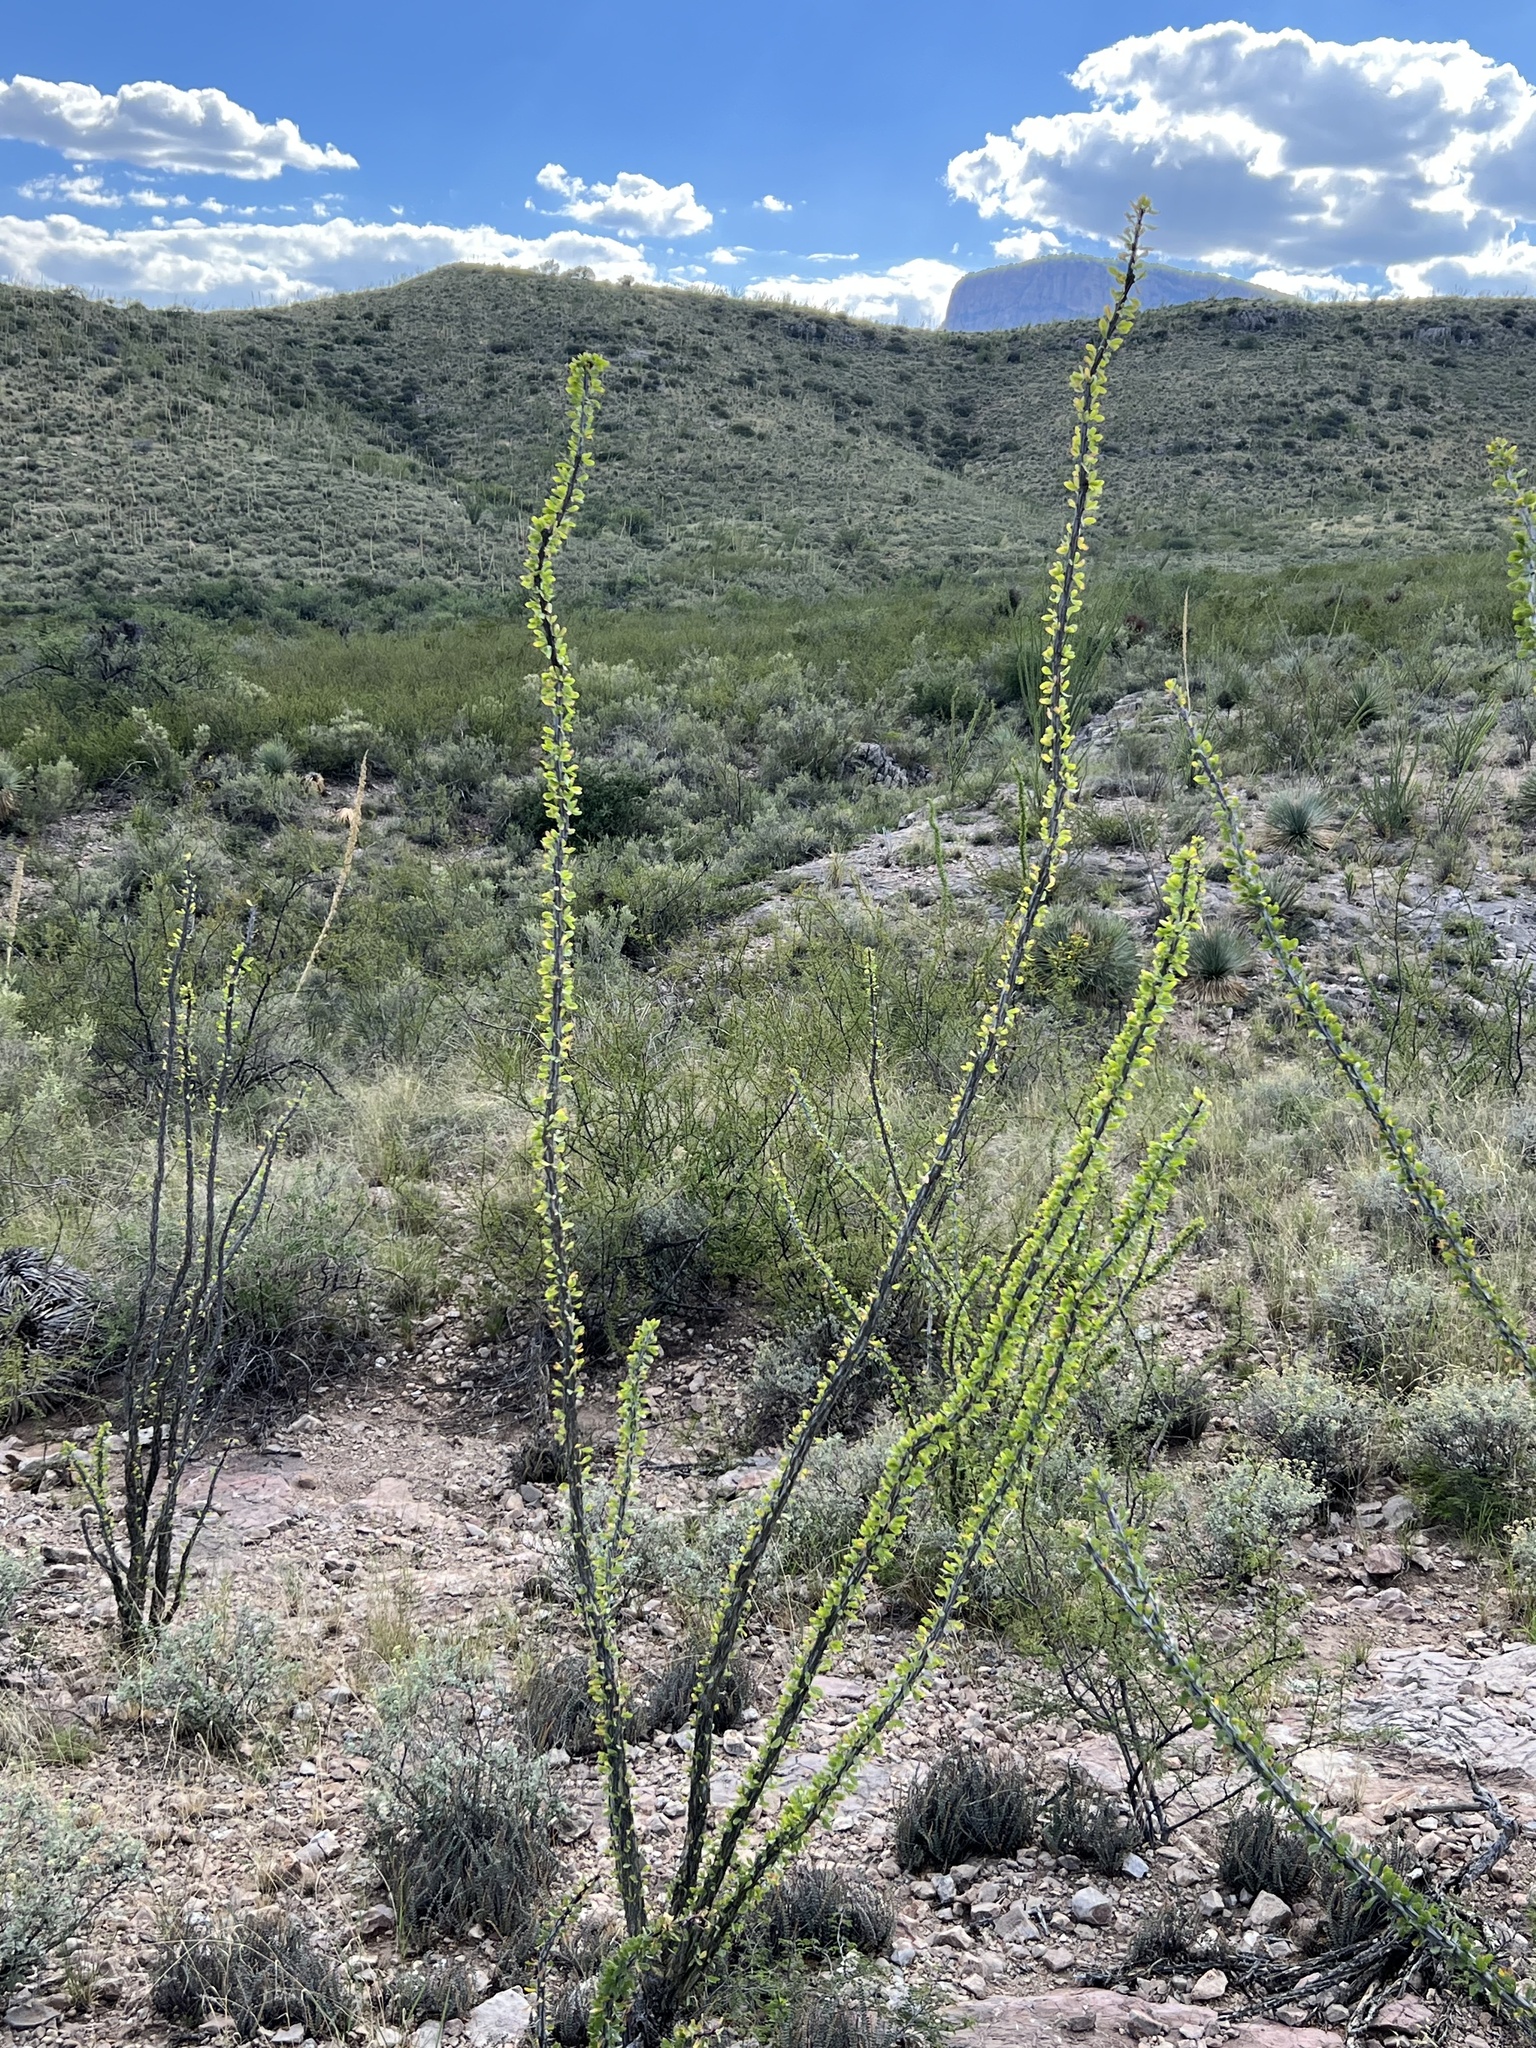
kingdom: Plantae
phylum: Tracheophyta
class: Magnoliopsida
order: Ericales
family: Fouquieriaceae
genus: Fouquieria
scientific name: Fouquieria splendens
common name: Vine-cactus
